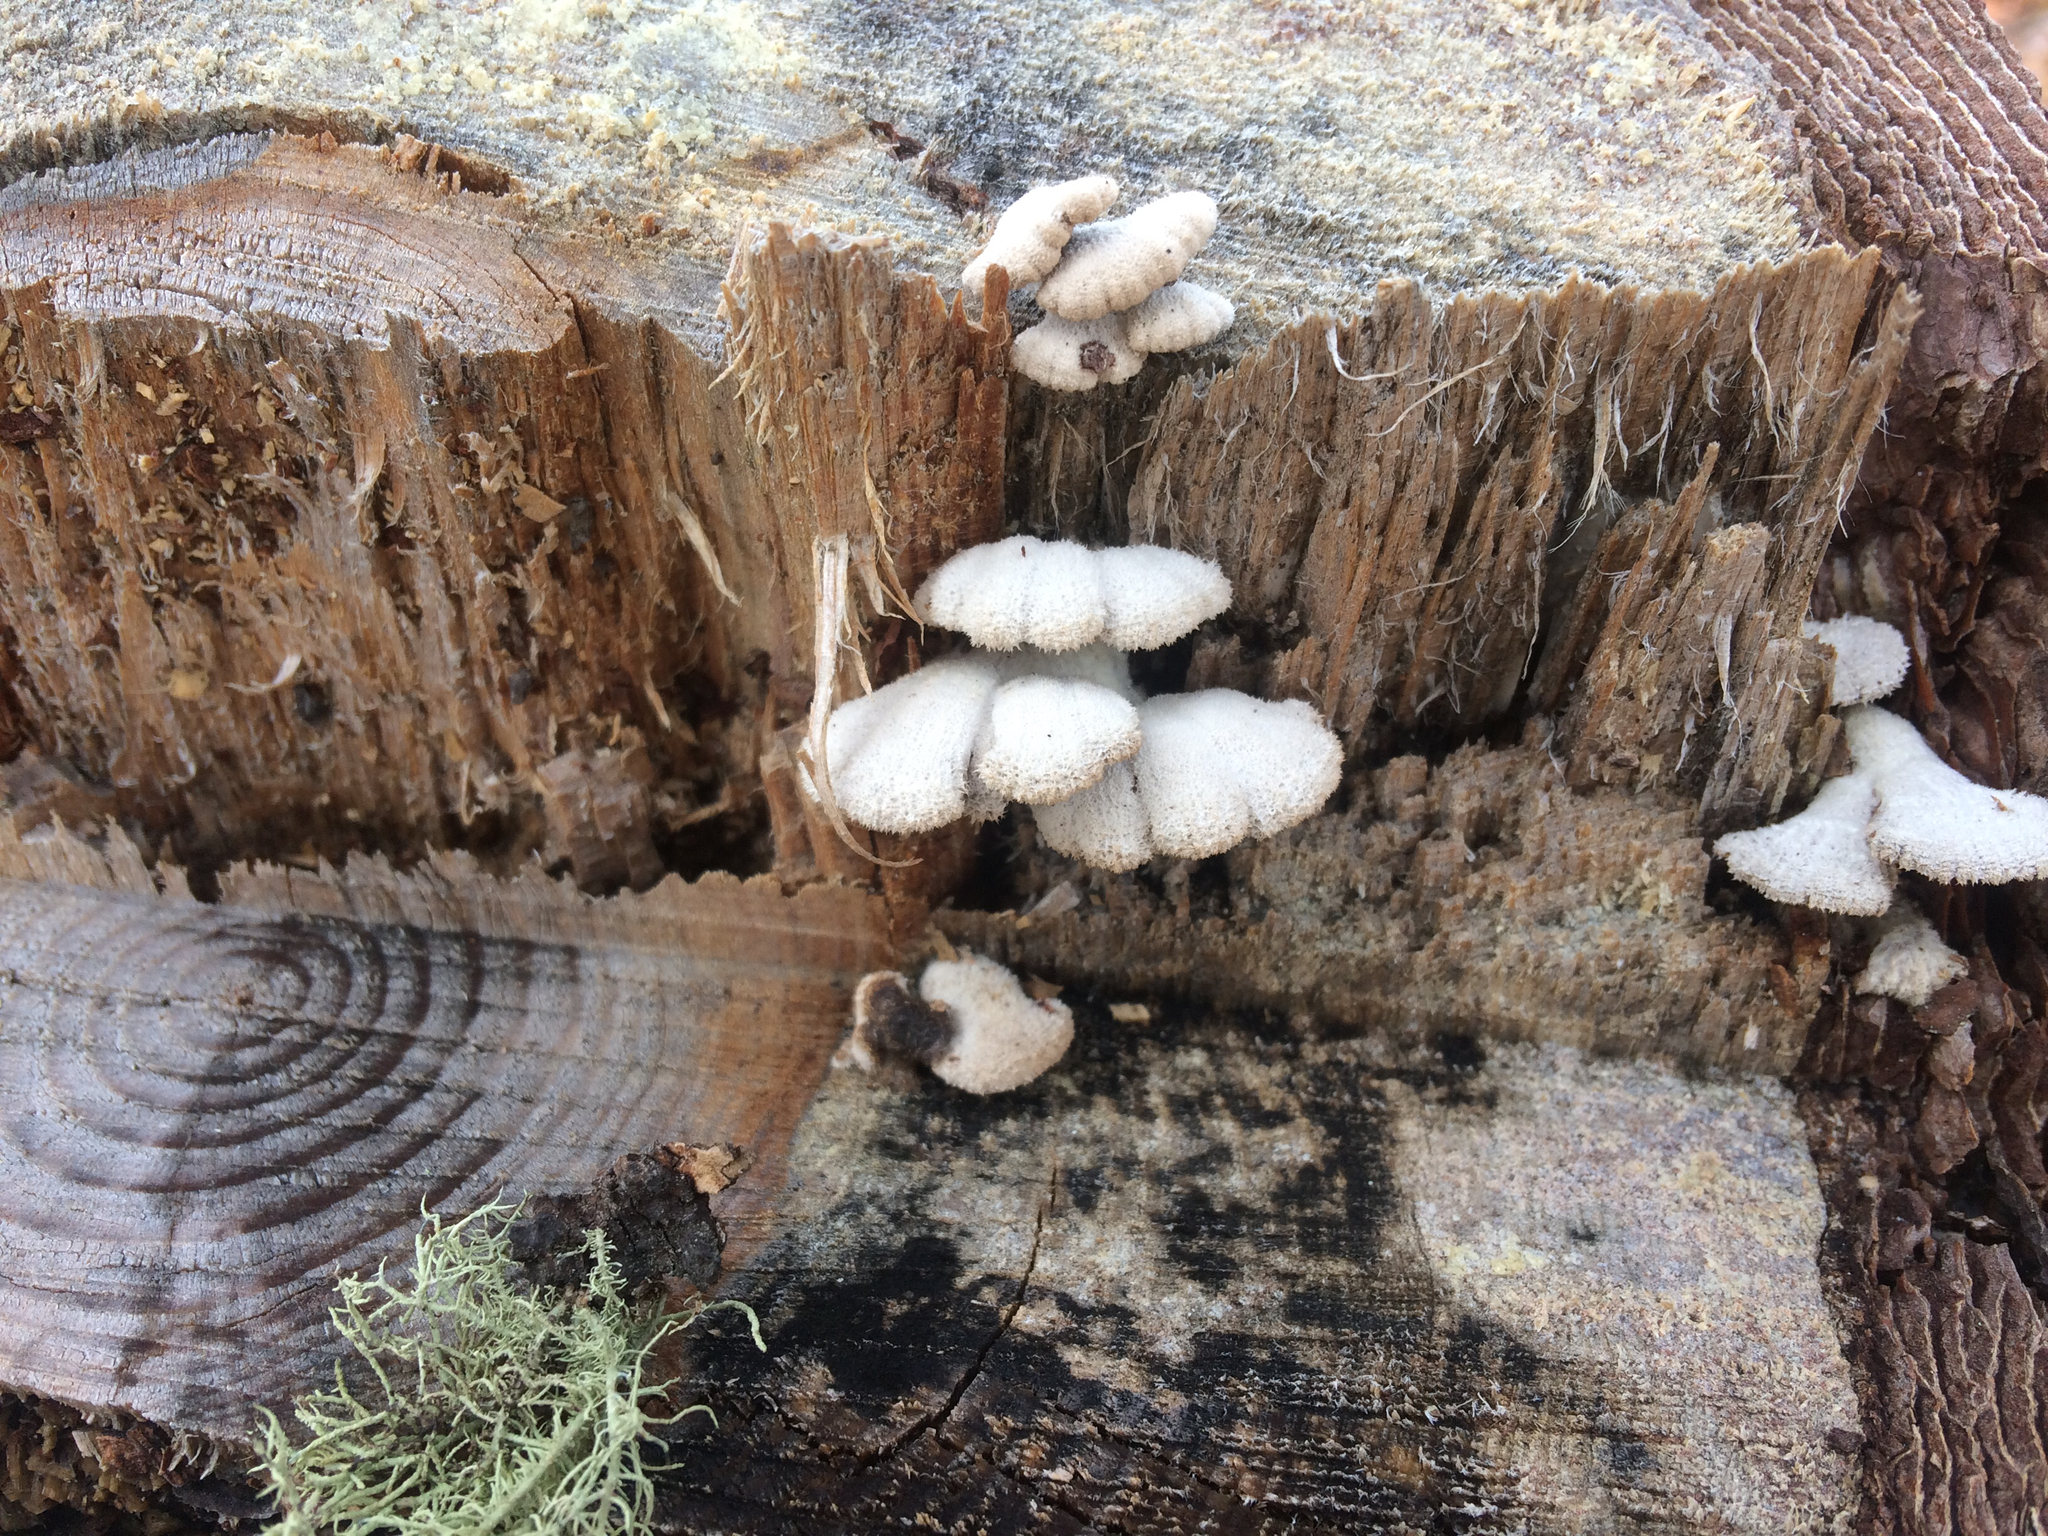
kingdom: Fungi
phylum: Basidiomycota
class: Agaricomycetes
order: Agaricales
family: Schizophyllaceae
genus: Schizophyllum
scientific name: Schizophyllum commune
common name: Common porecrust
